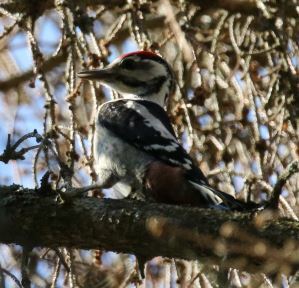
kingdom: Animalia
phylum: Chordata
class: Aves
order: Piciformes
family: Picidae
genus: Dendrocopos
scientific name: Dendrocopos major
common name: Great spotted woodpecker
